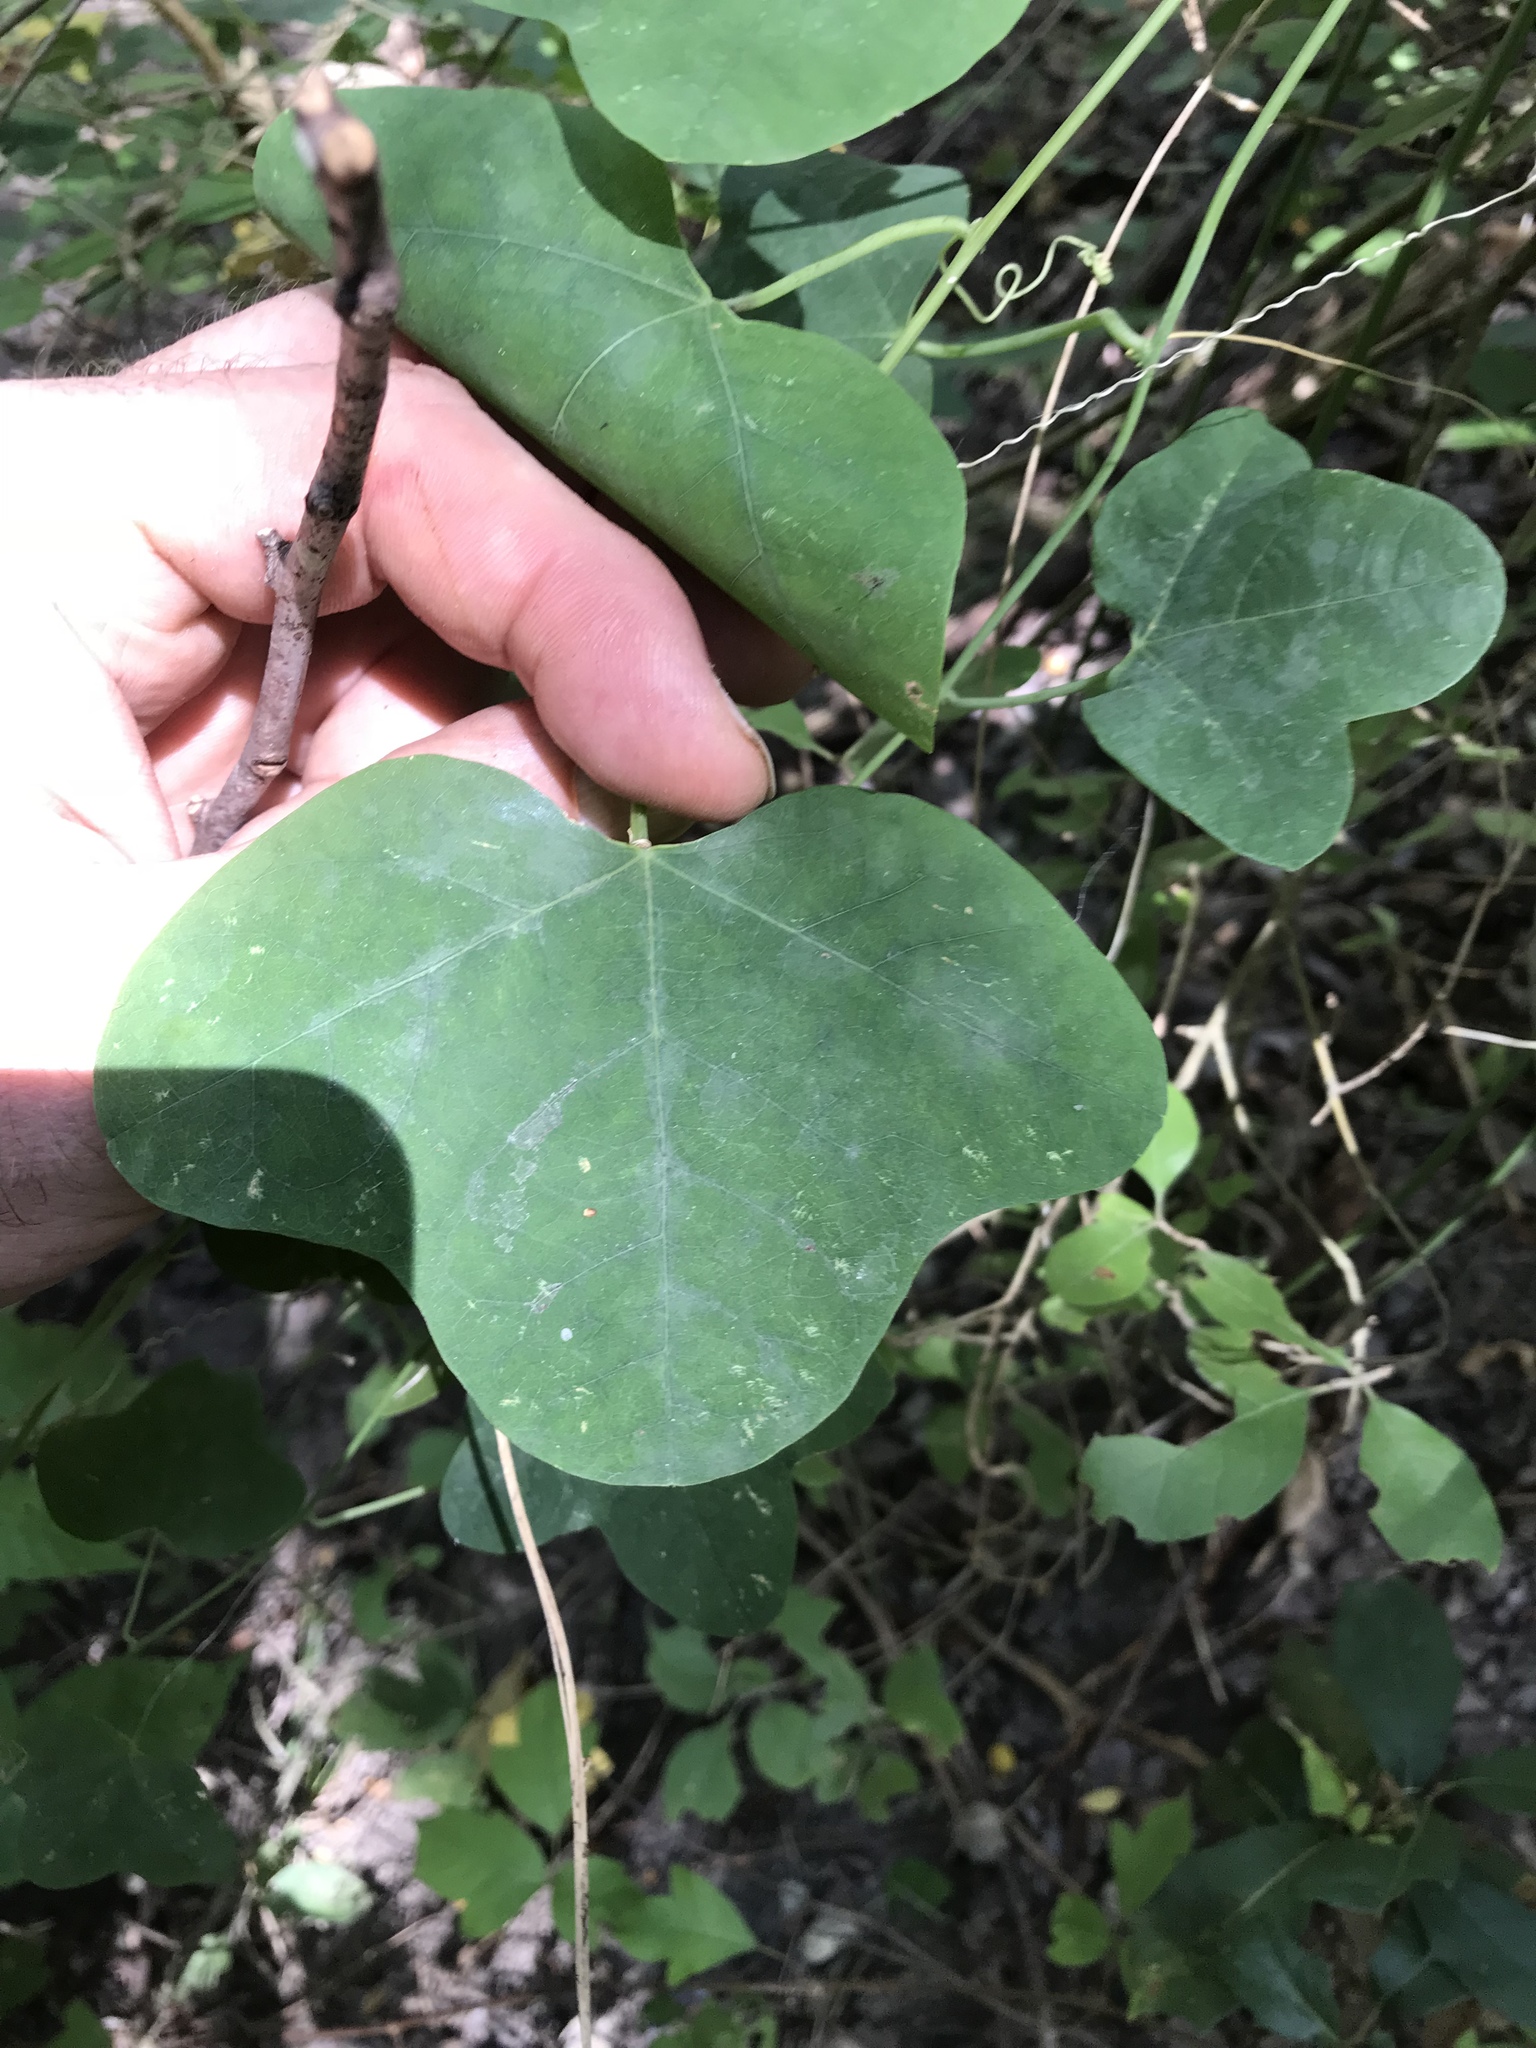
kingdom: Plantae
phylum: Tracheophyta
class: Magnoliopsida
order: Malpighiales
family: Passifloraceae
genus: Passiflora
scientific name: Passiflora lutea
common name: Yellow passionflower
